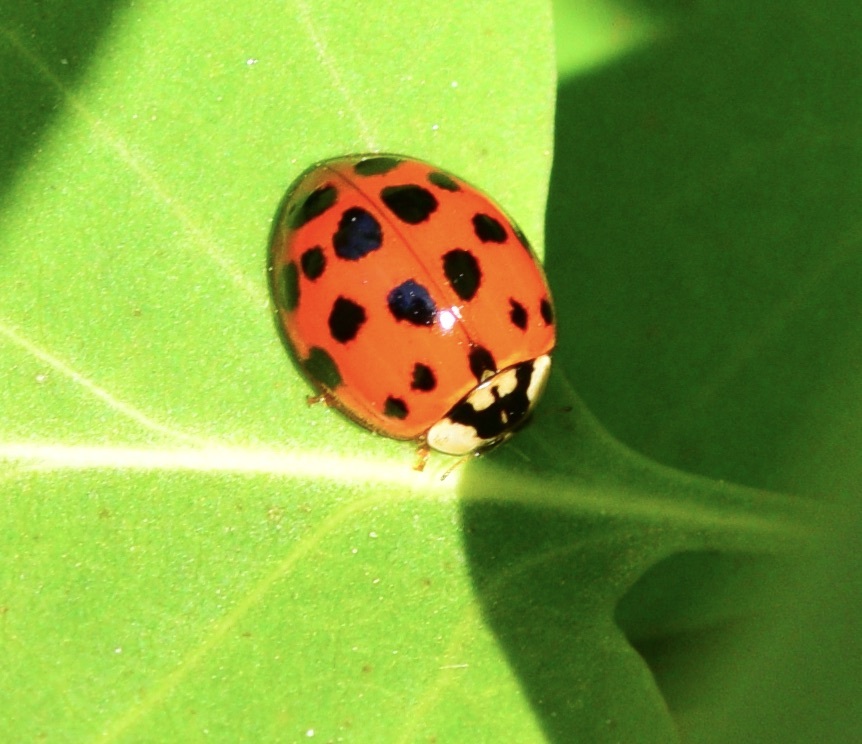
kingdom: Animalia
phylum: Arthropoda
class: Insecta
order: Coleoptera
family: Coccinellidae
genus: Harmonia
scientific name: Harmonia axyridis
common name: Harlequin ladybird
